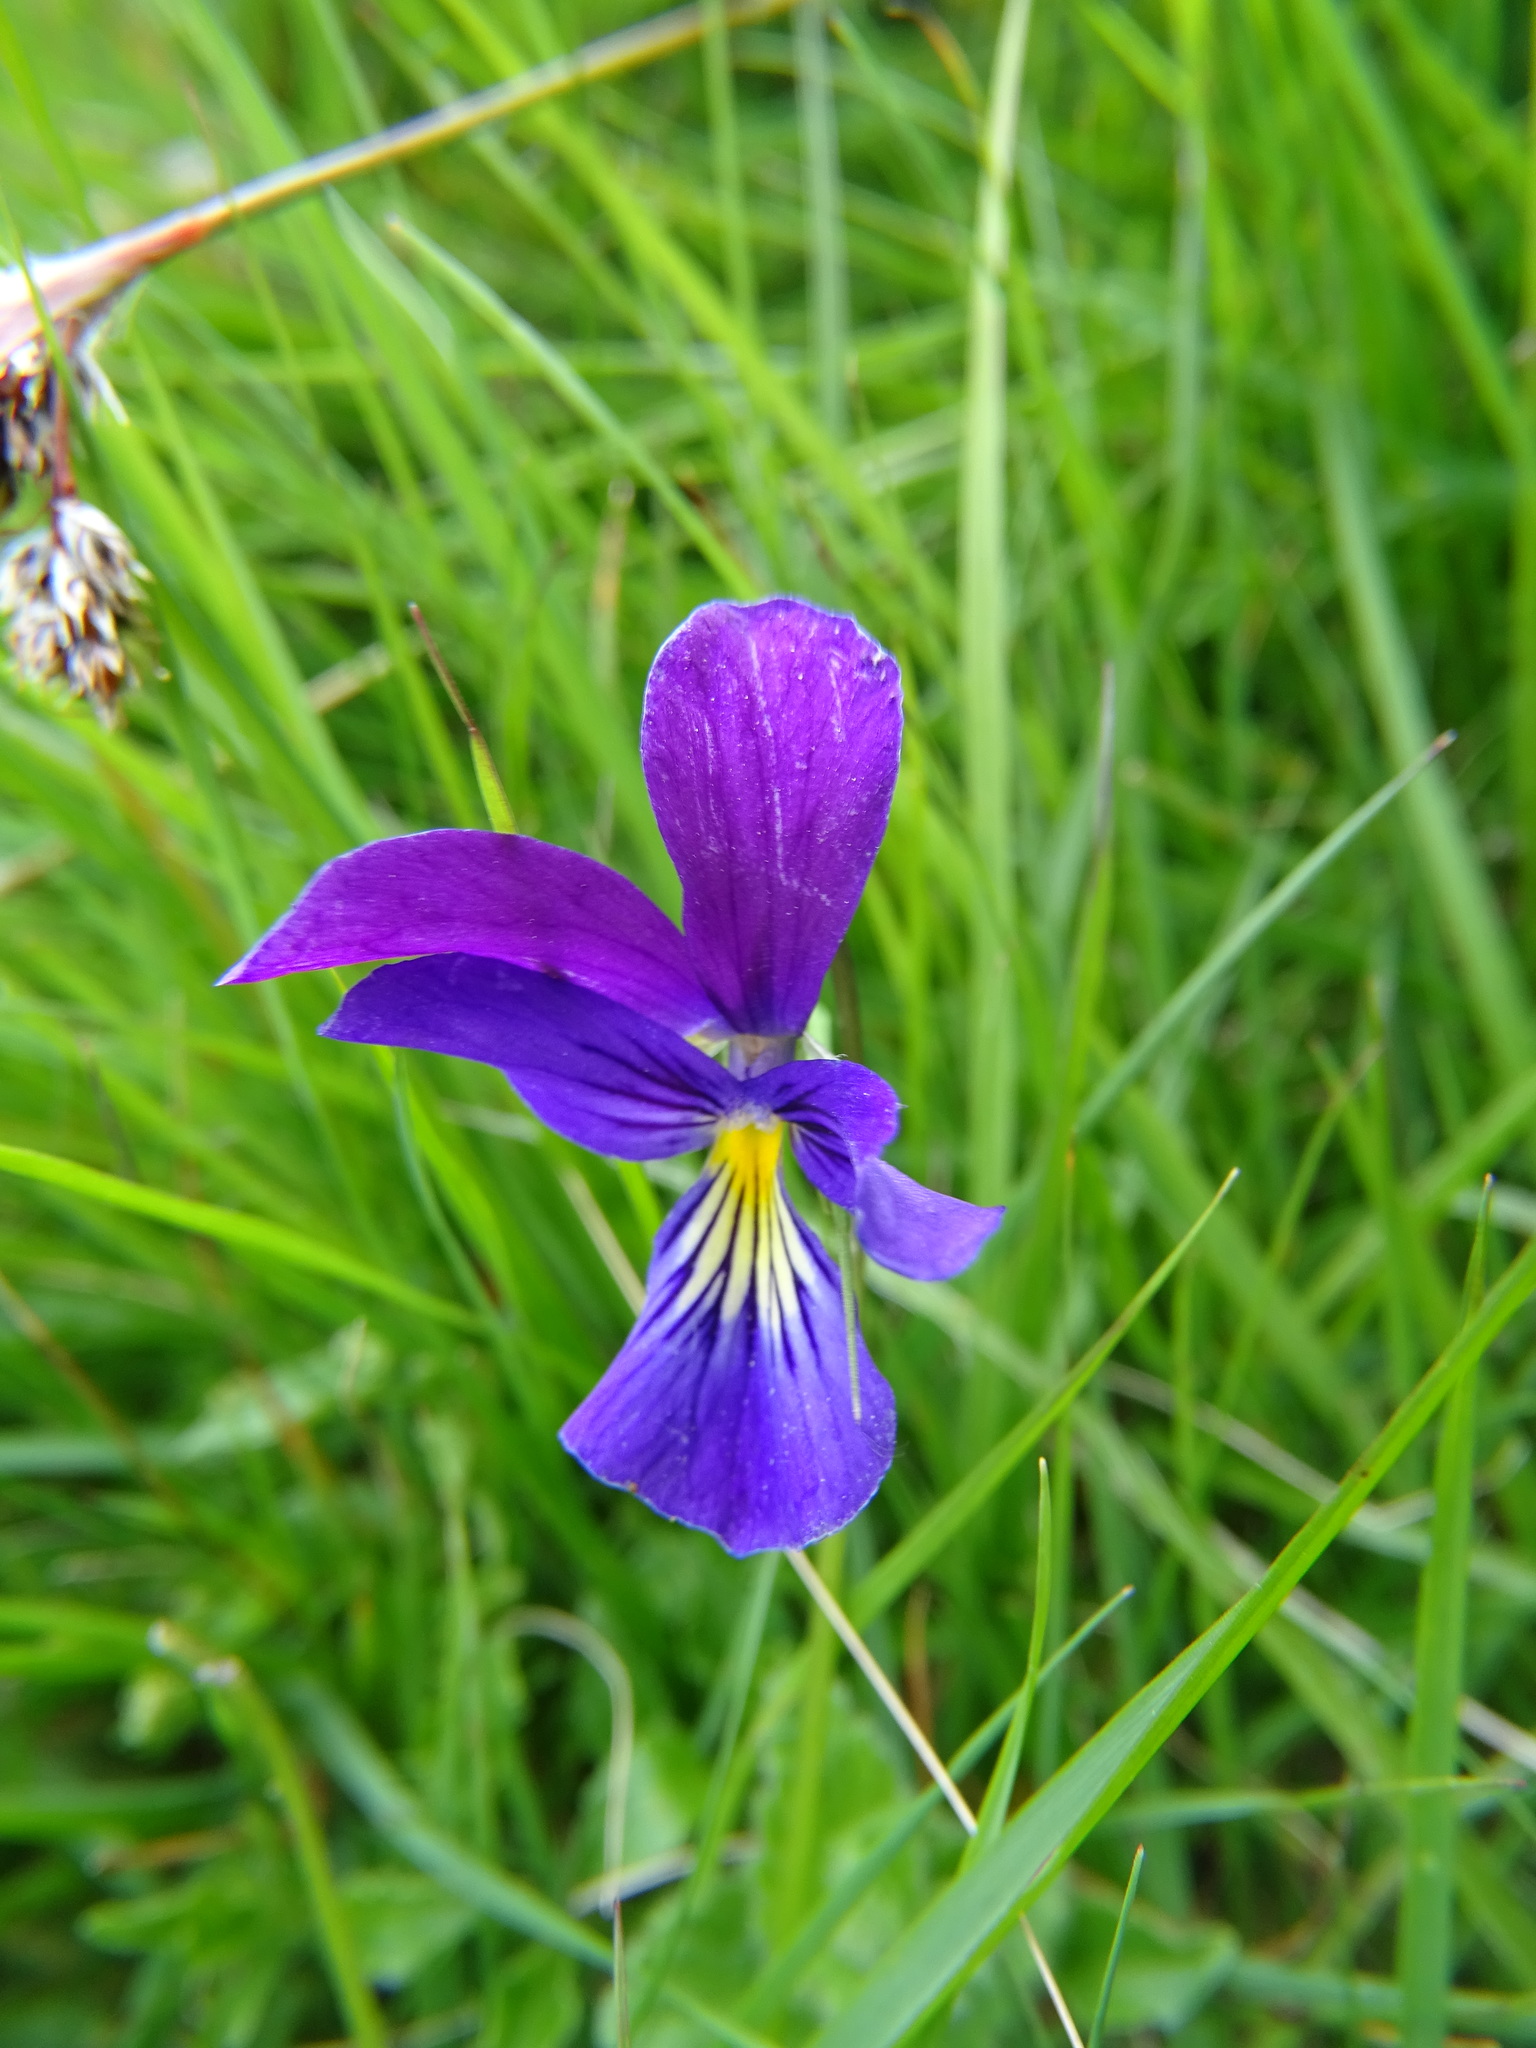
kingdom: Plantae
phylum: Tracheophyta
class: Magnoliopsida
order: Malpighiales
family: Violaceae
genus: Viola
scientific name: Viola lutea
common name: Mountain pansy
